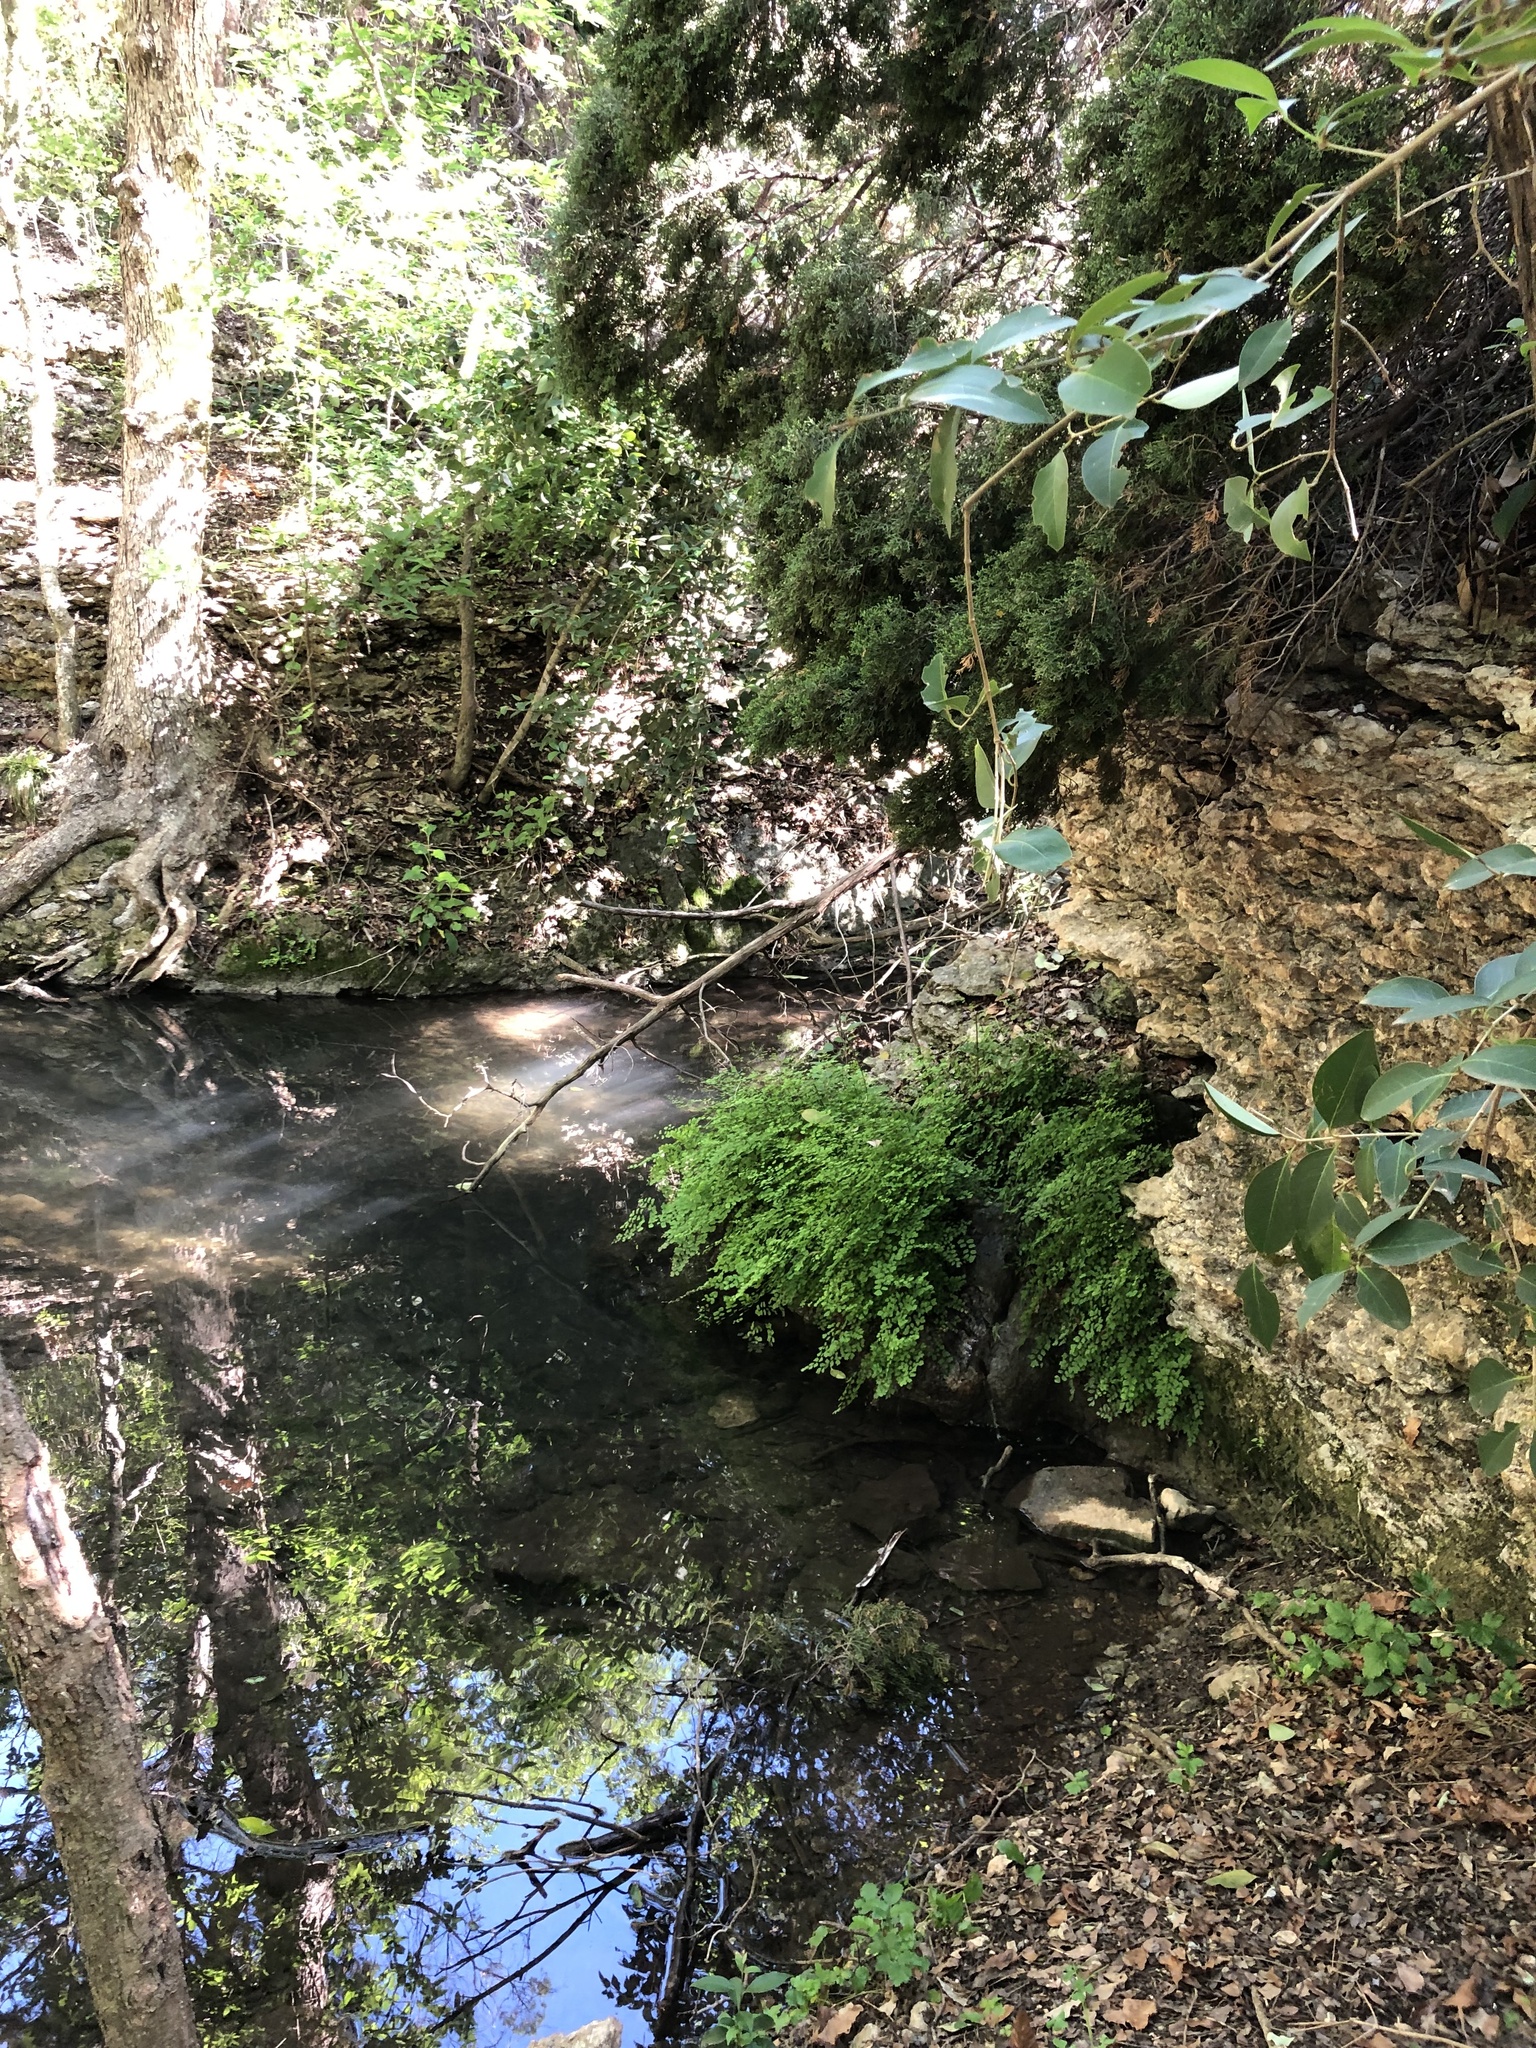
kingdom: Plantae
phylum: Tracheophyta
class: Polypodiopsida
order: Polypodiales
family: Pteridaceae
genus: Adiantum
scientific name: Adiantum capillus-veneris
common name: Maidenhair fern
